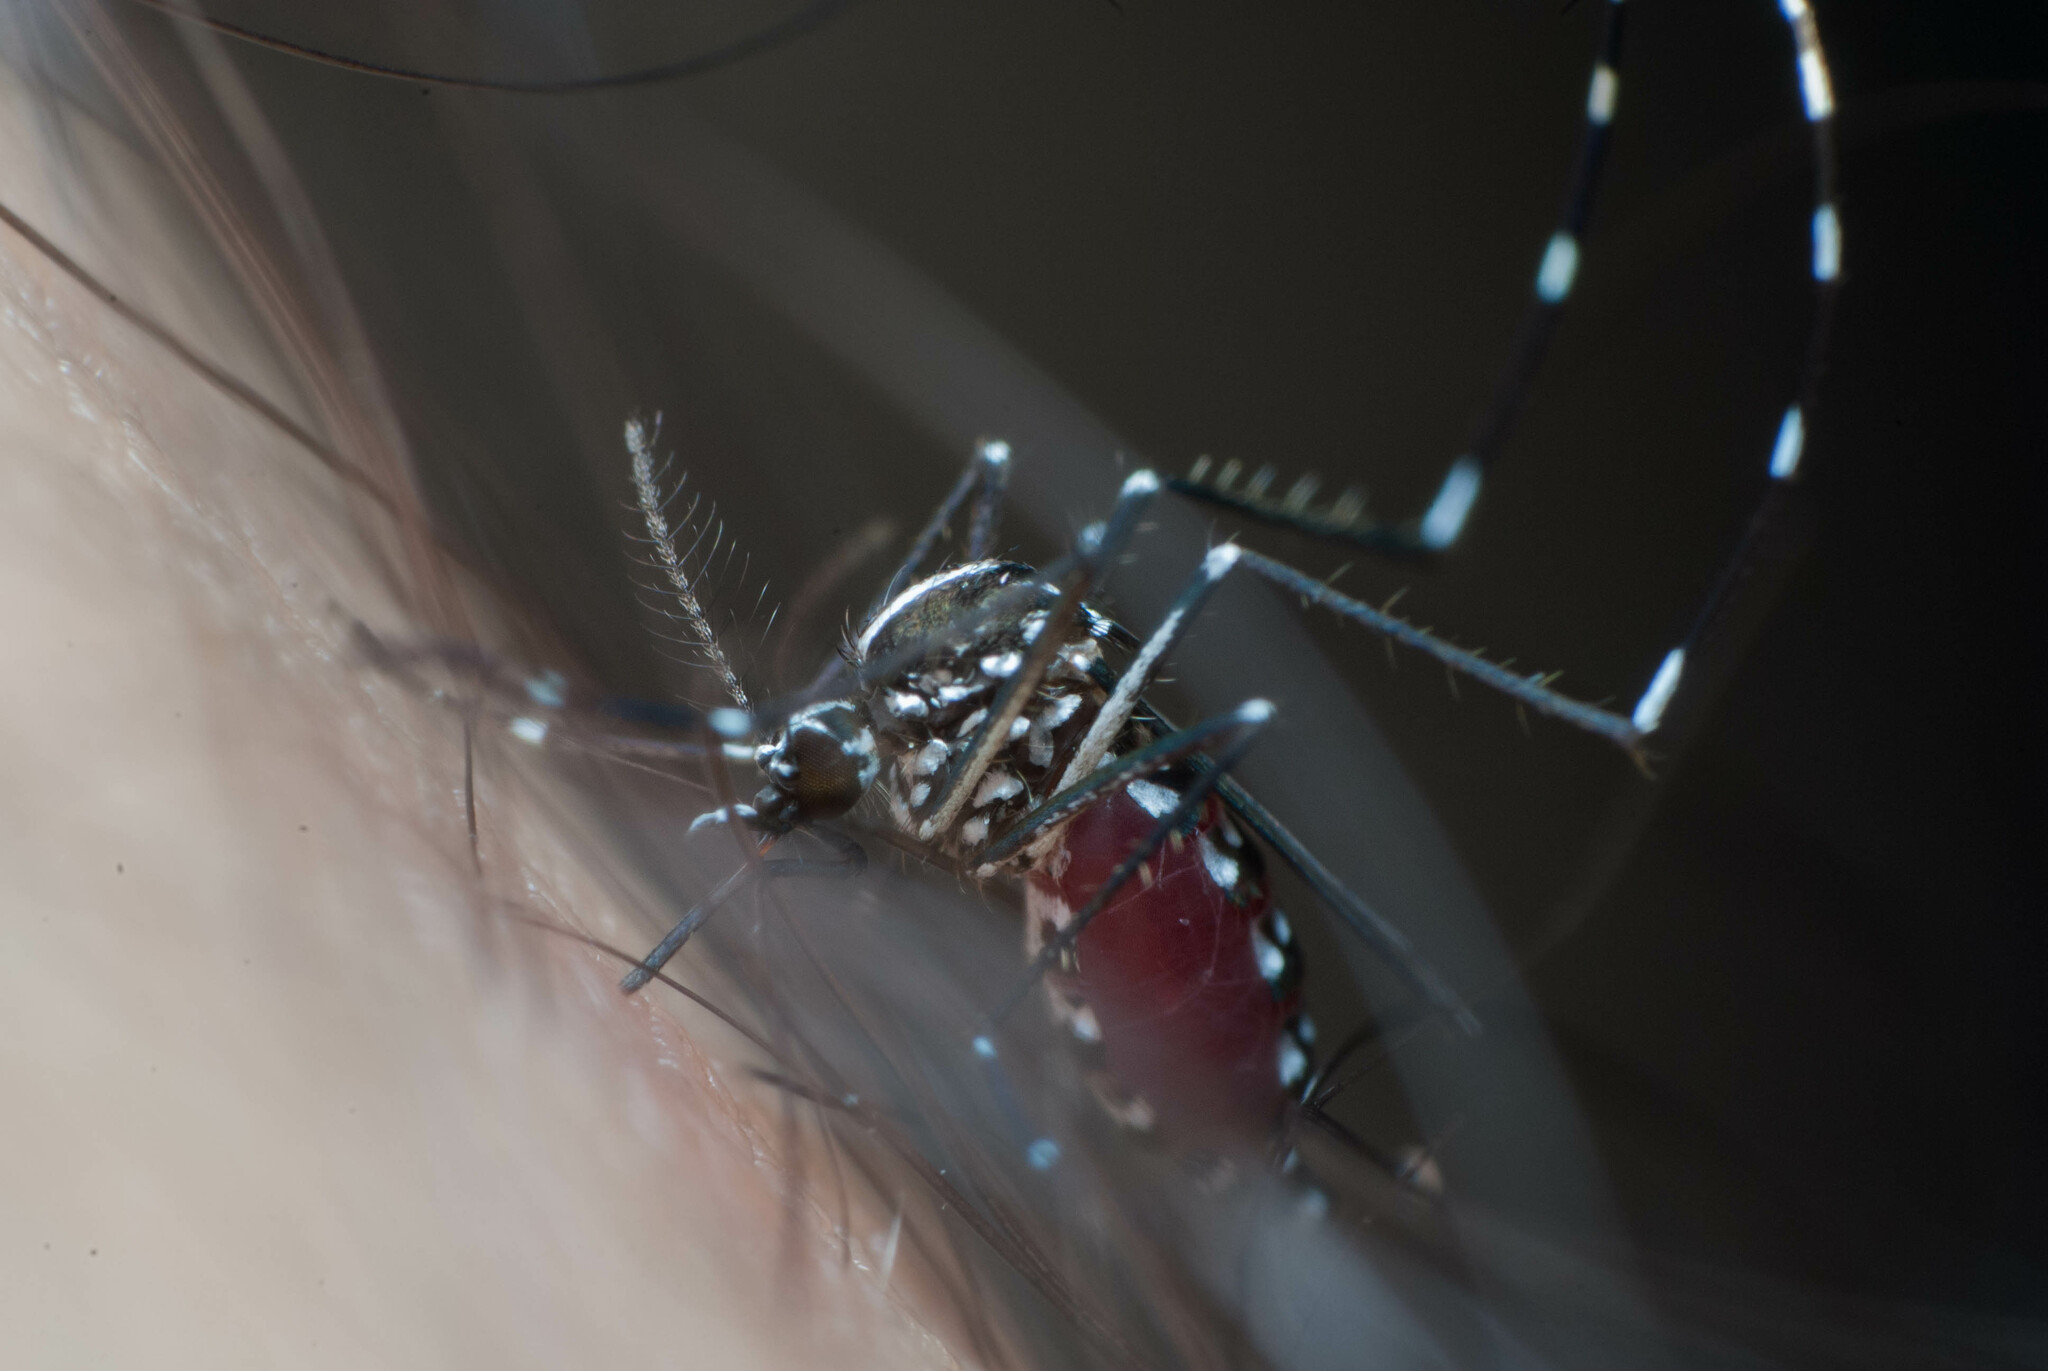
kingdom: Animalia
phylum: Arthropoda
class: Insecta
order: Diptera
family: Culicidae
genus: Aedes
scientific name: Aedes albopictus
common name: Tiger mosquito
